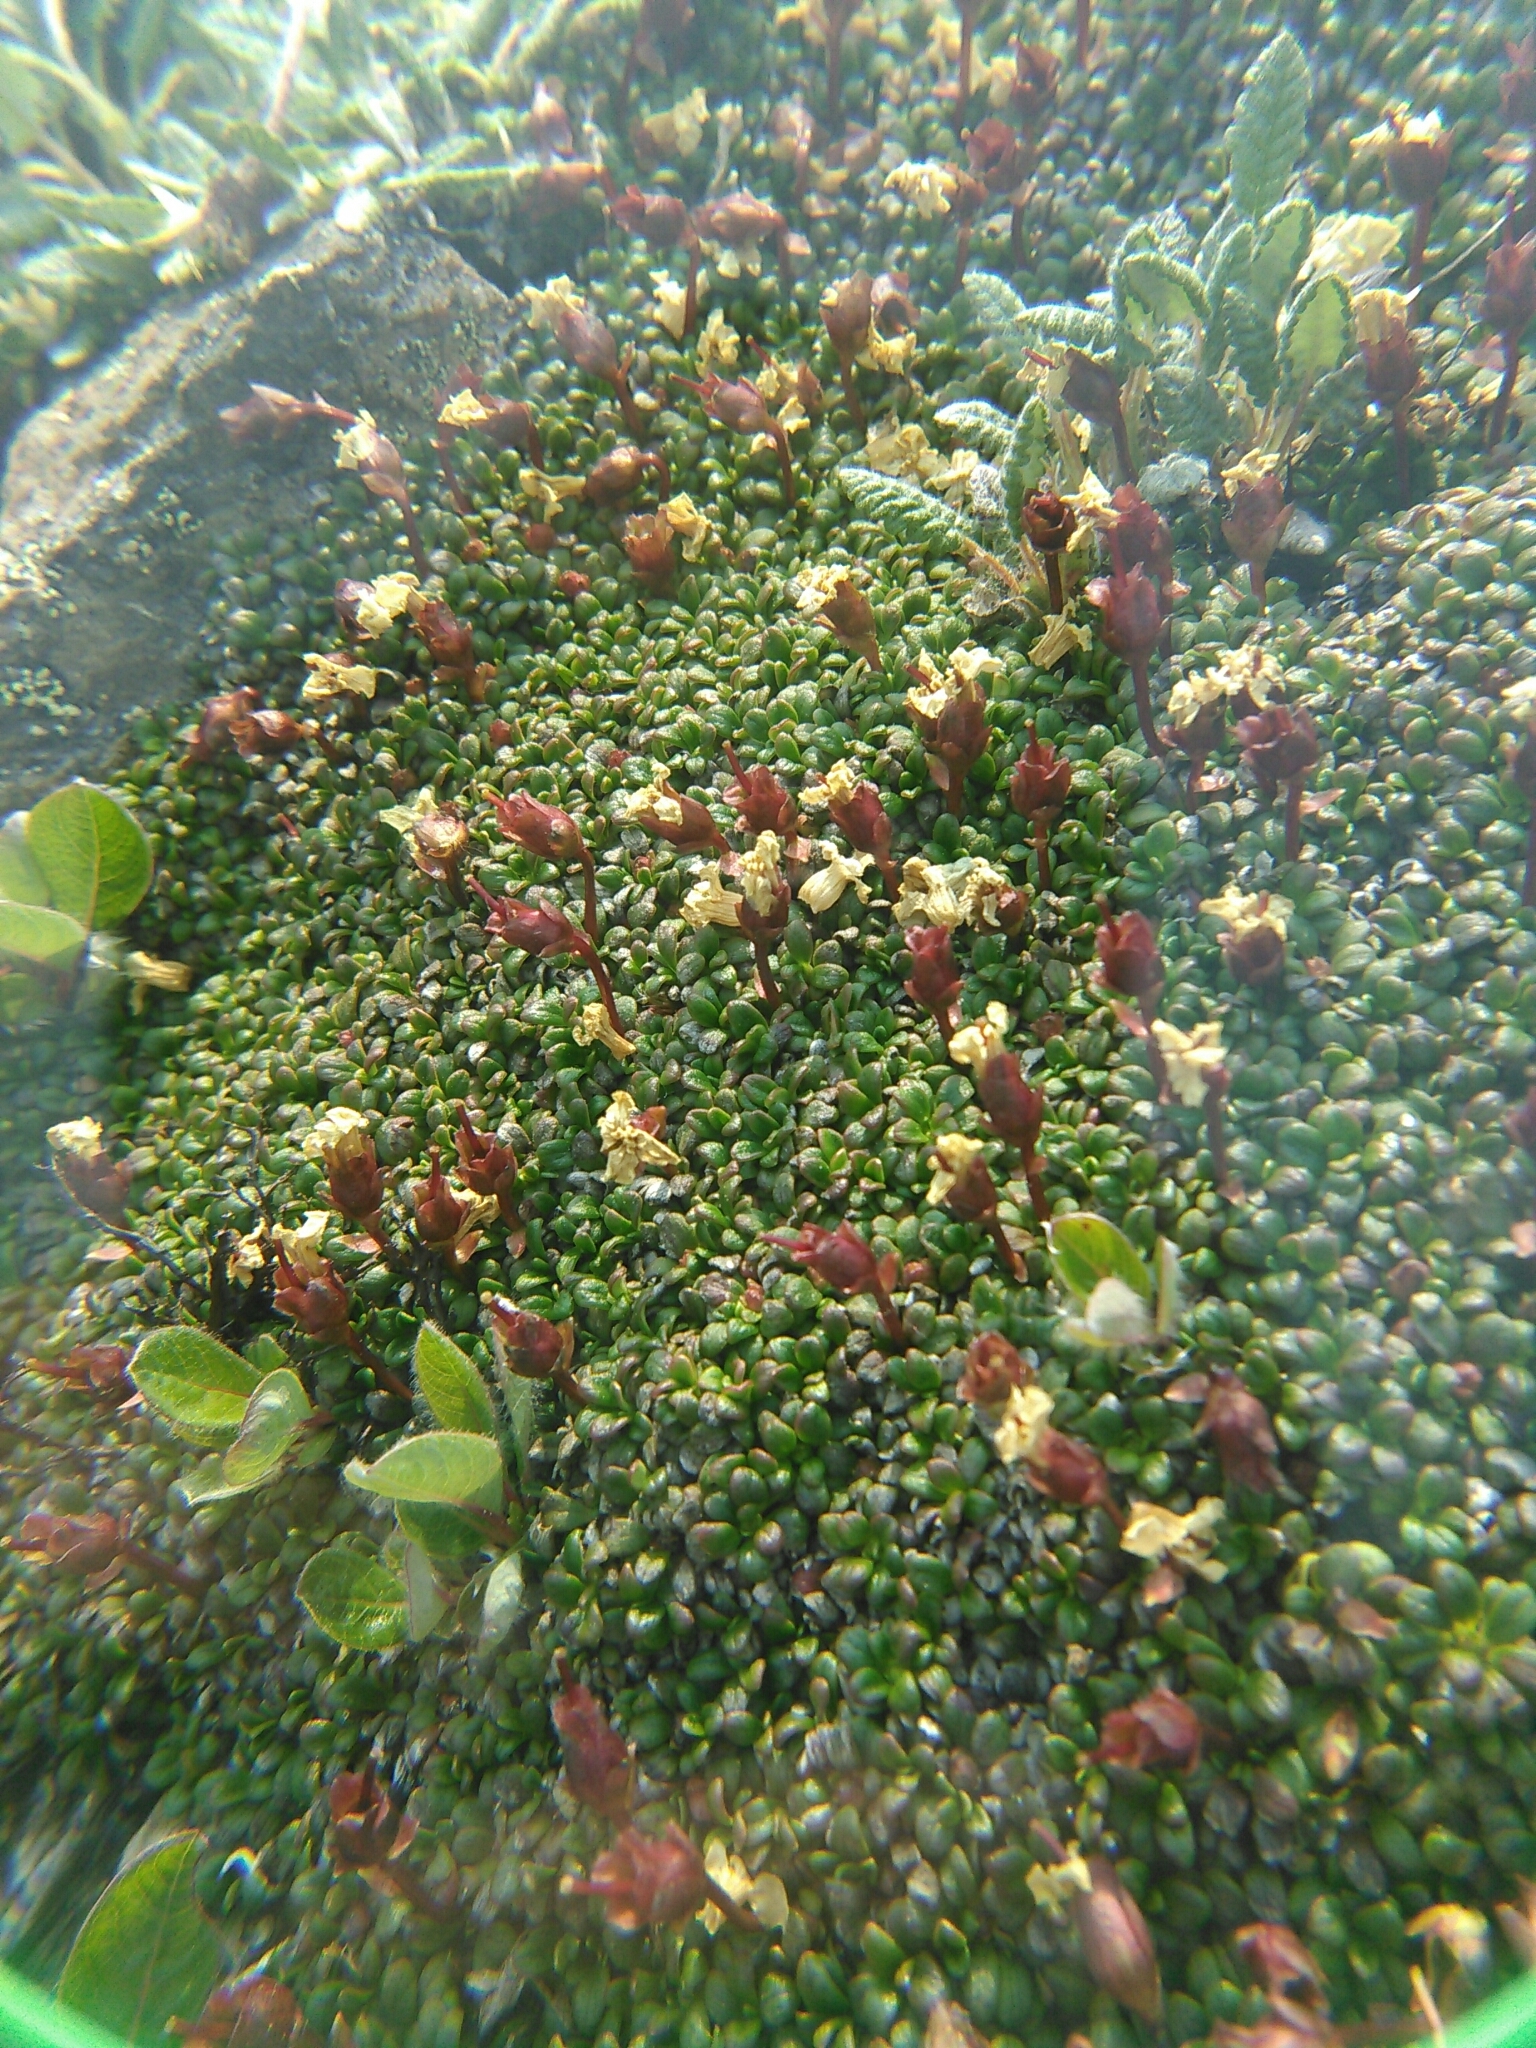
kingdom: Plantae
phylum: Tracheophyta
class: Magnoliopsida
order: Ericales
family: Diapensiaceae
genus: Diapensia
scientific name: Diapensia obovata
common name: Alaska diapensia
